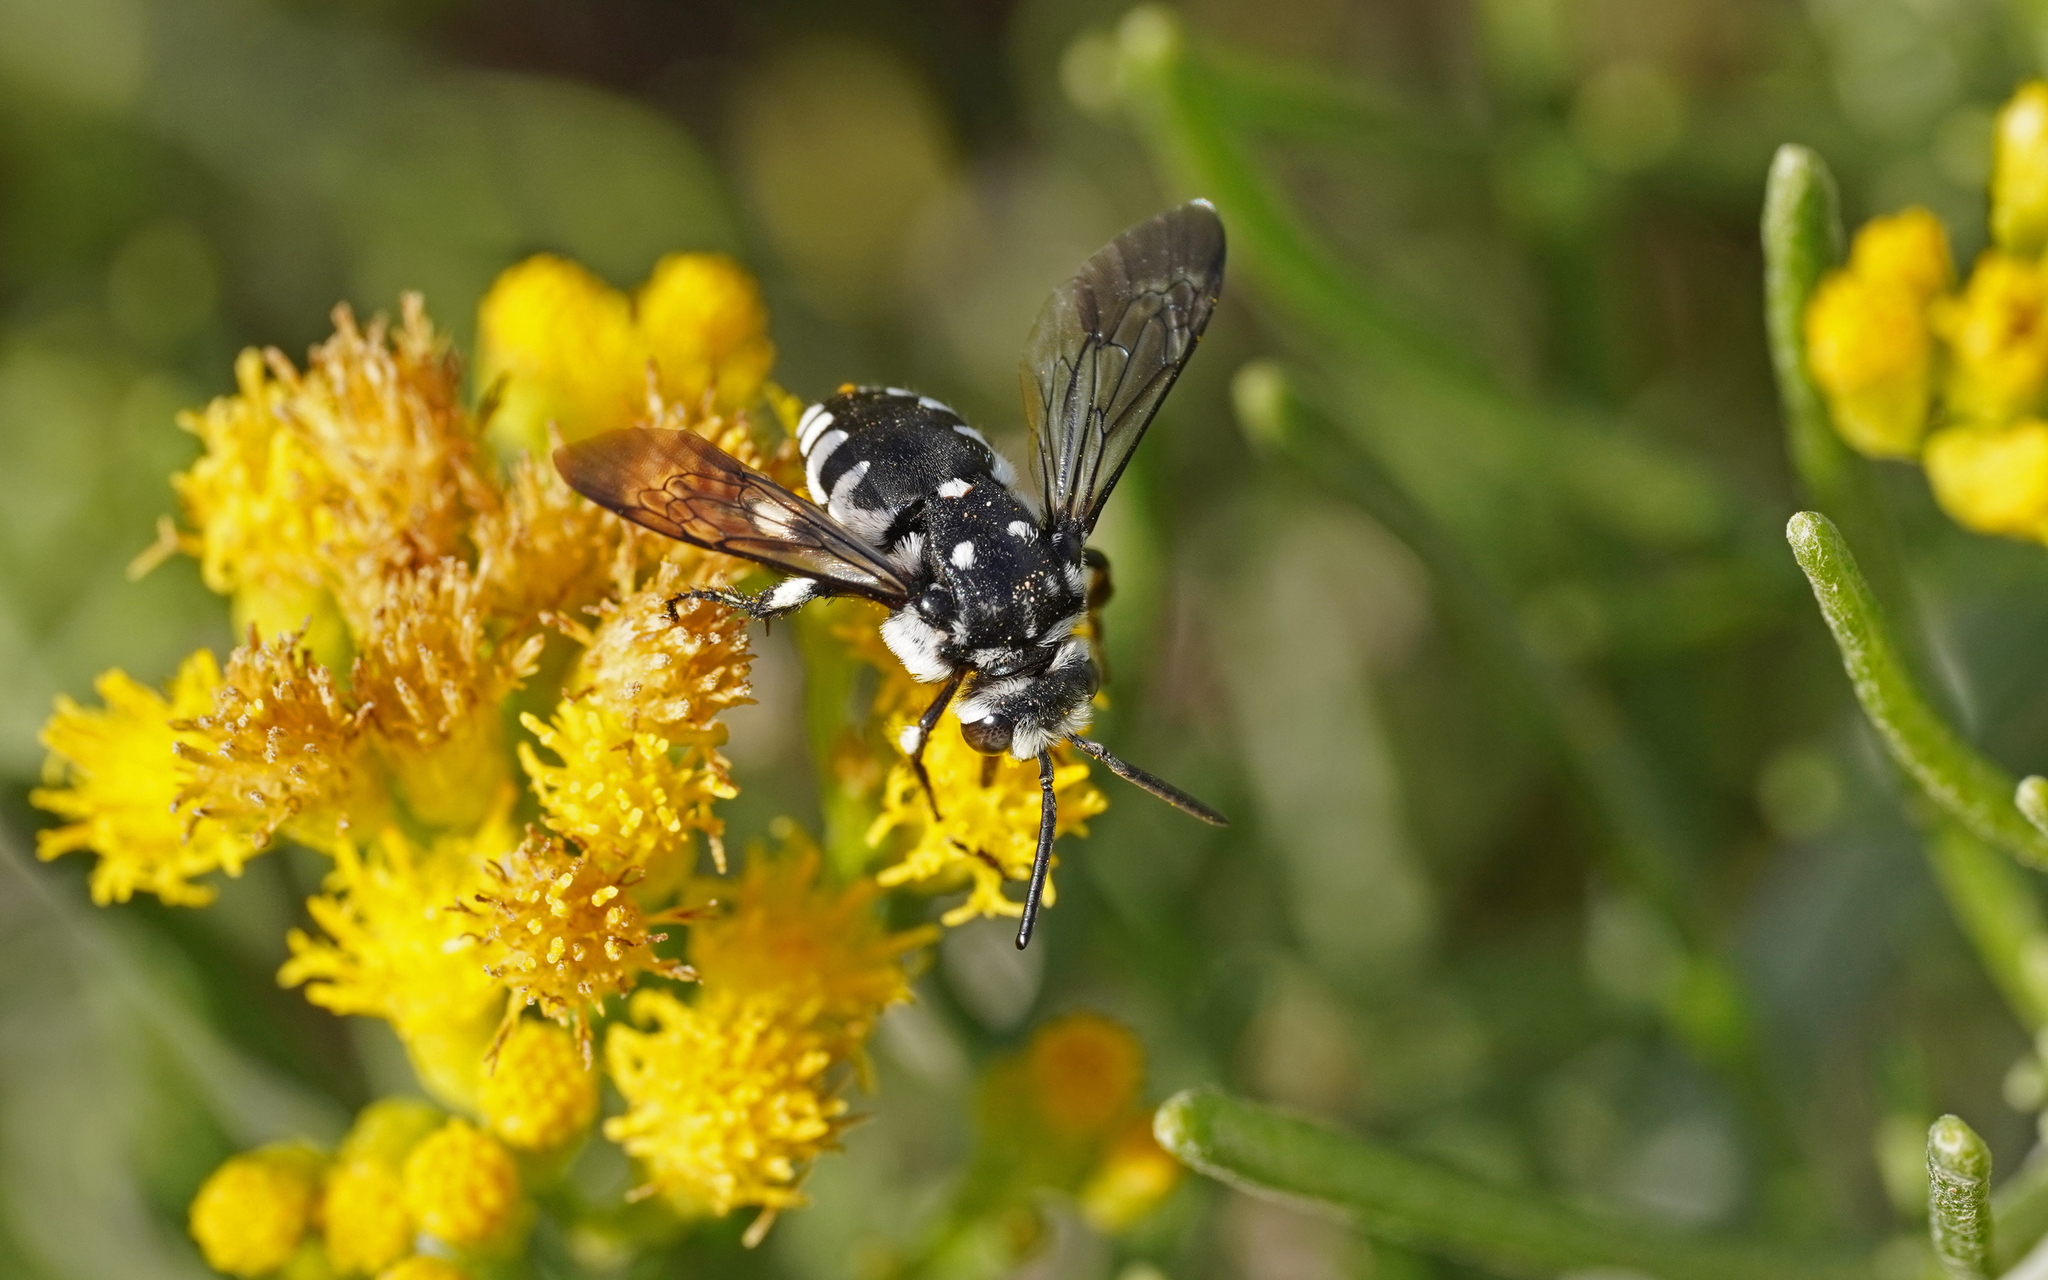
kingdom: Animalia
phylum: Arthropoda
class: Insecta
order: Hymenoptera
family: Apidae
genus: Thyreus
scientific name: Thyreus histrionicus
